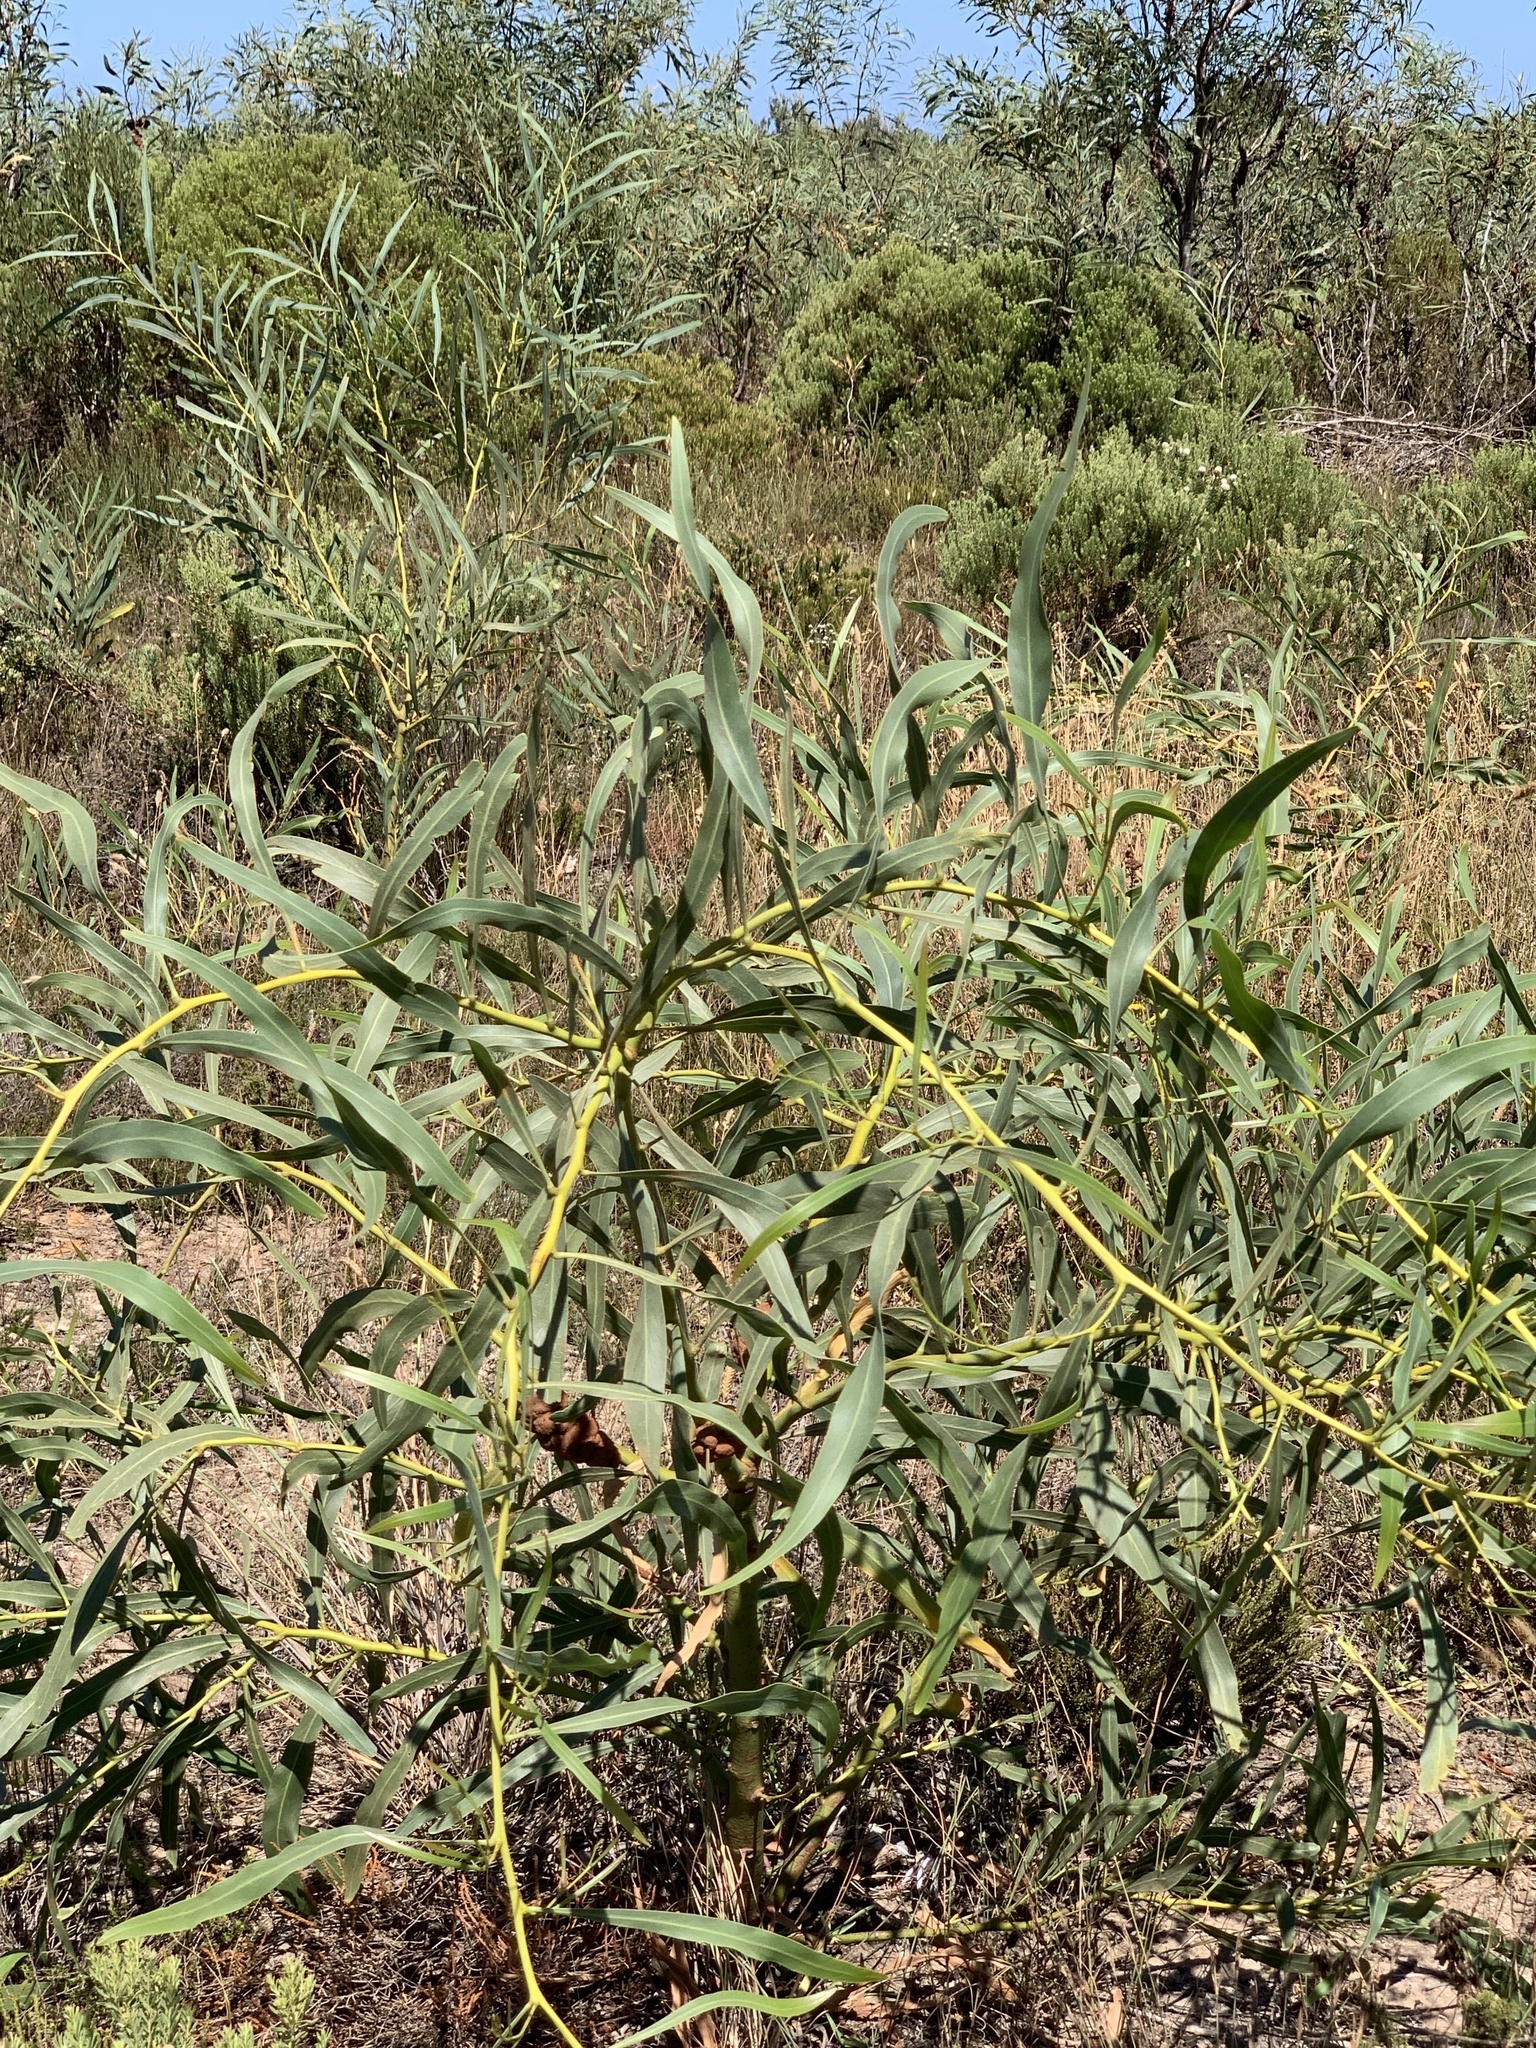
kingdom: Plantae
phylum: Tracheophyta
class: Magnoliopsida
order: Fabales
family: Fabaceae
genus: Acacia
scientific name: Acacia saligna
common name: Orange wattle
